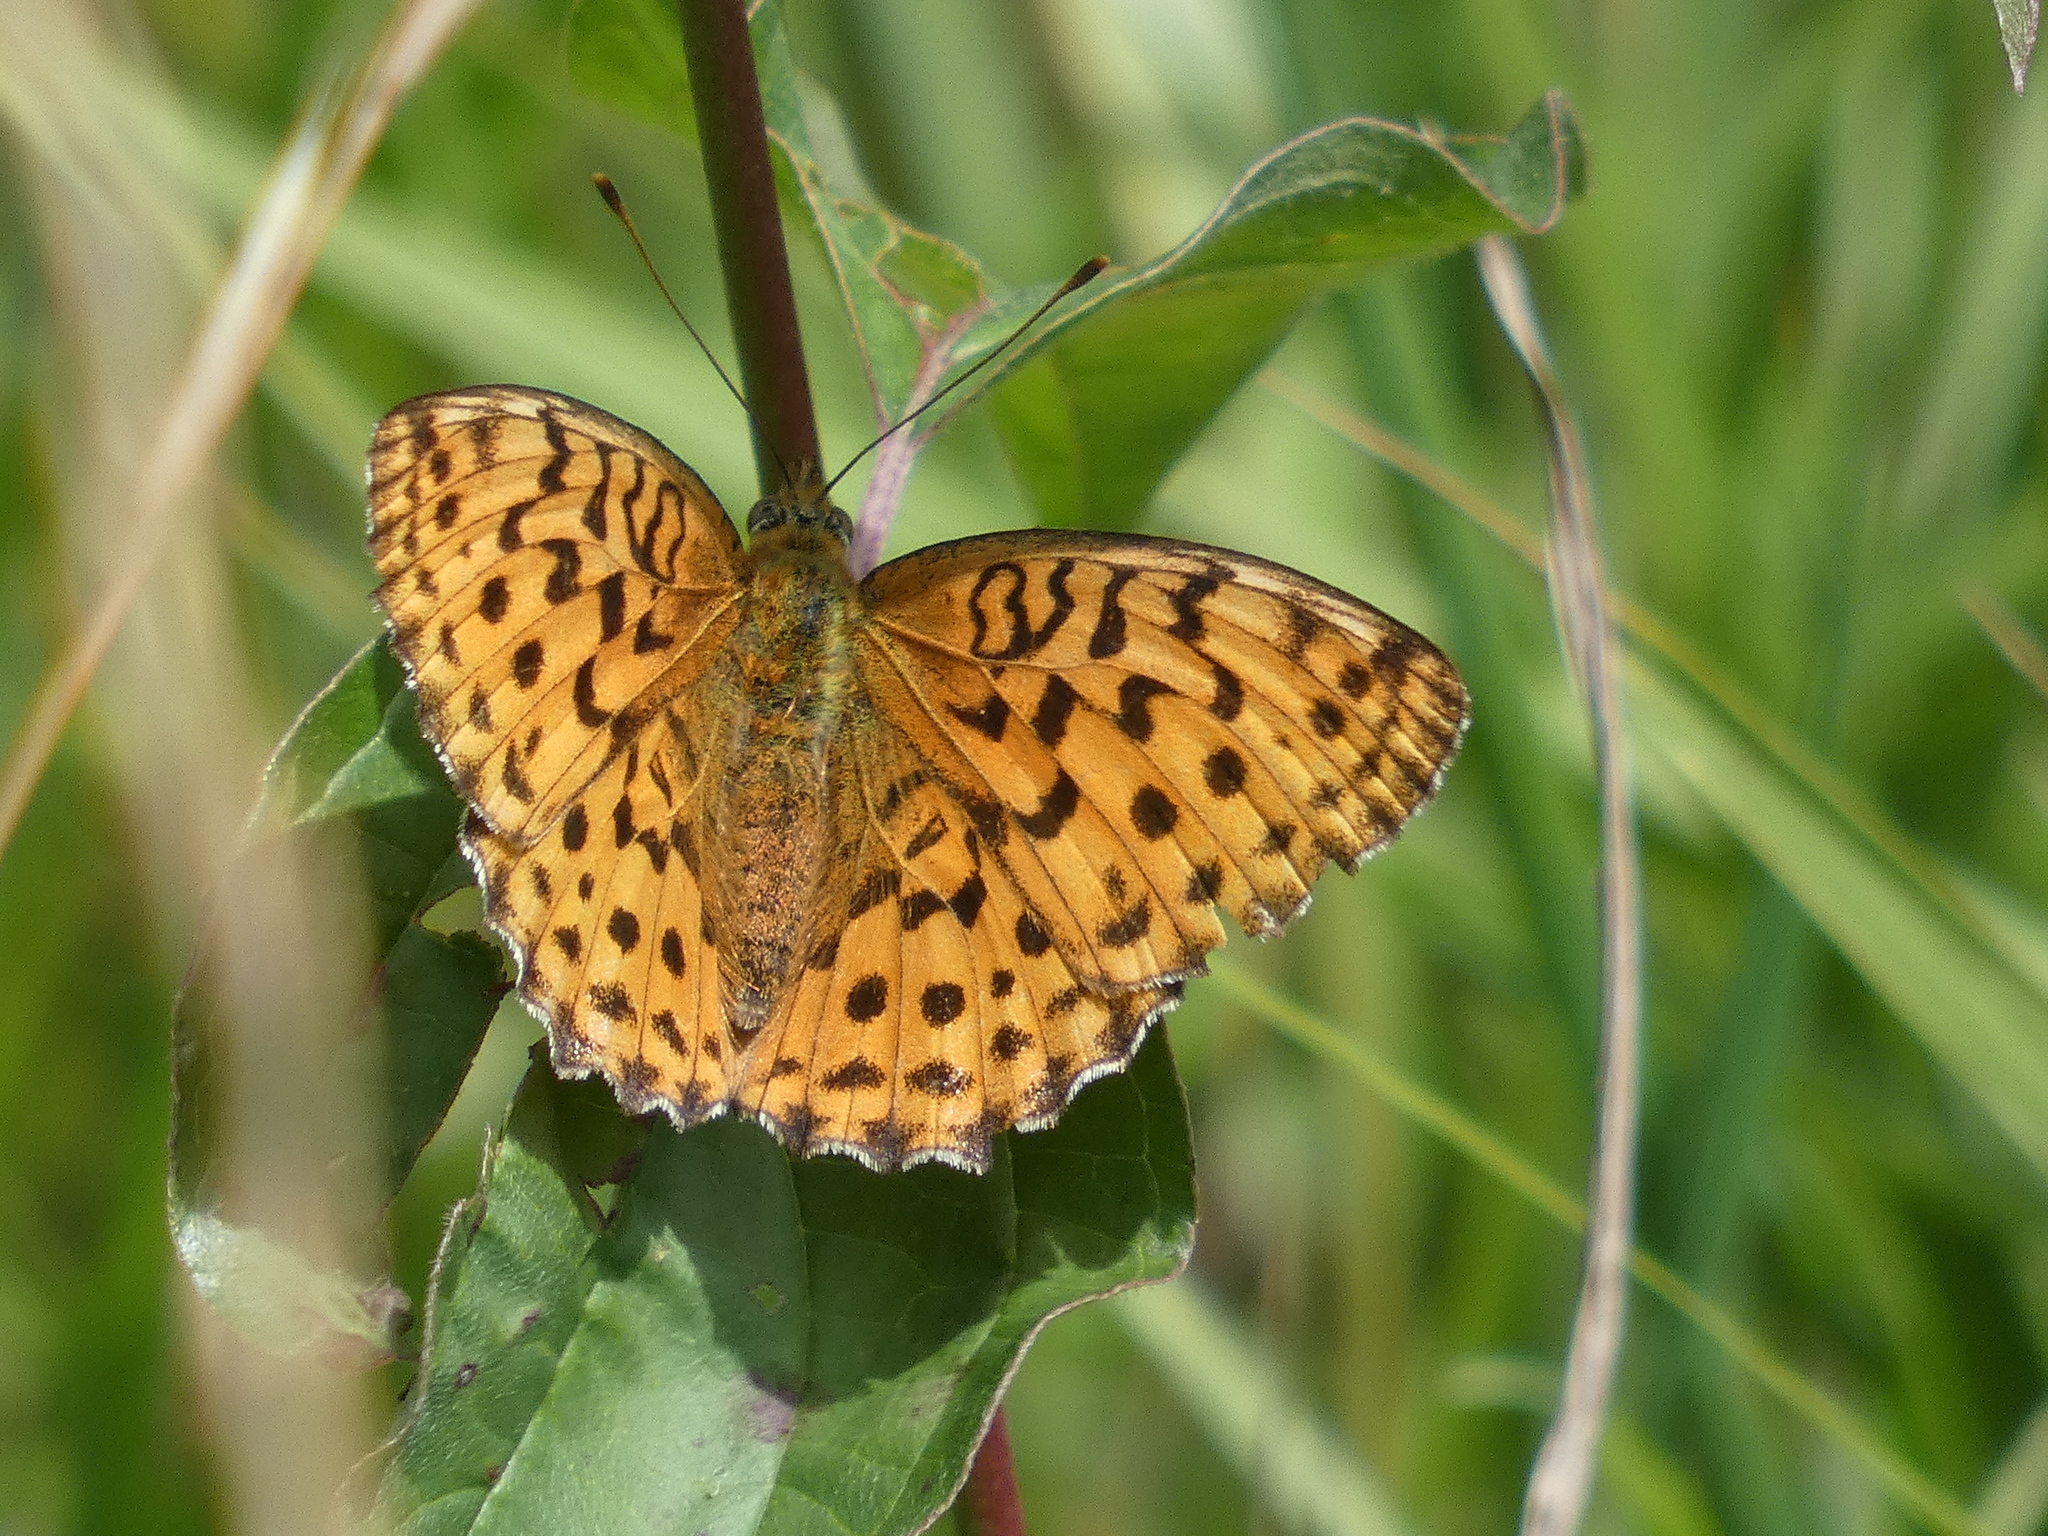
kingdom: Animalia
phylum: Arthropoda
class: Insecta
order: Lepidoptera
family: Nymphalidae
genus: Brenthis
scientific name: Brenthis daphne
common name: Marbled fritillary
